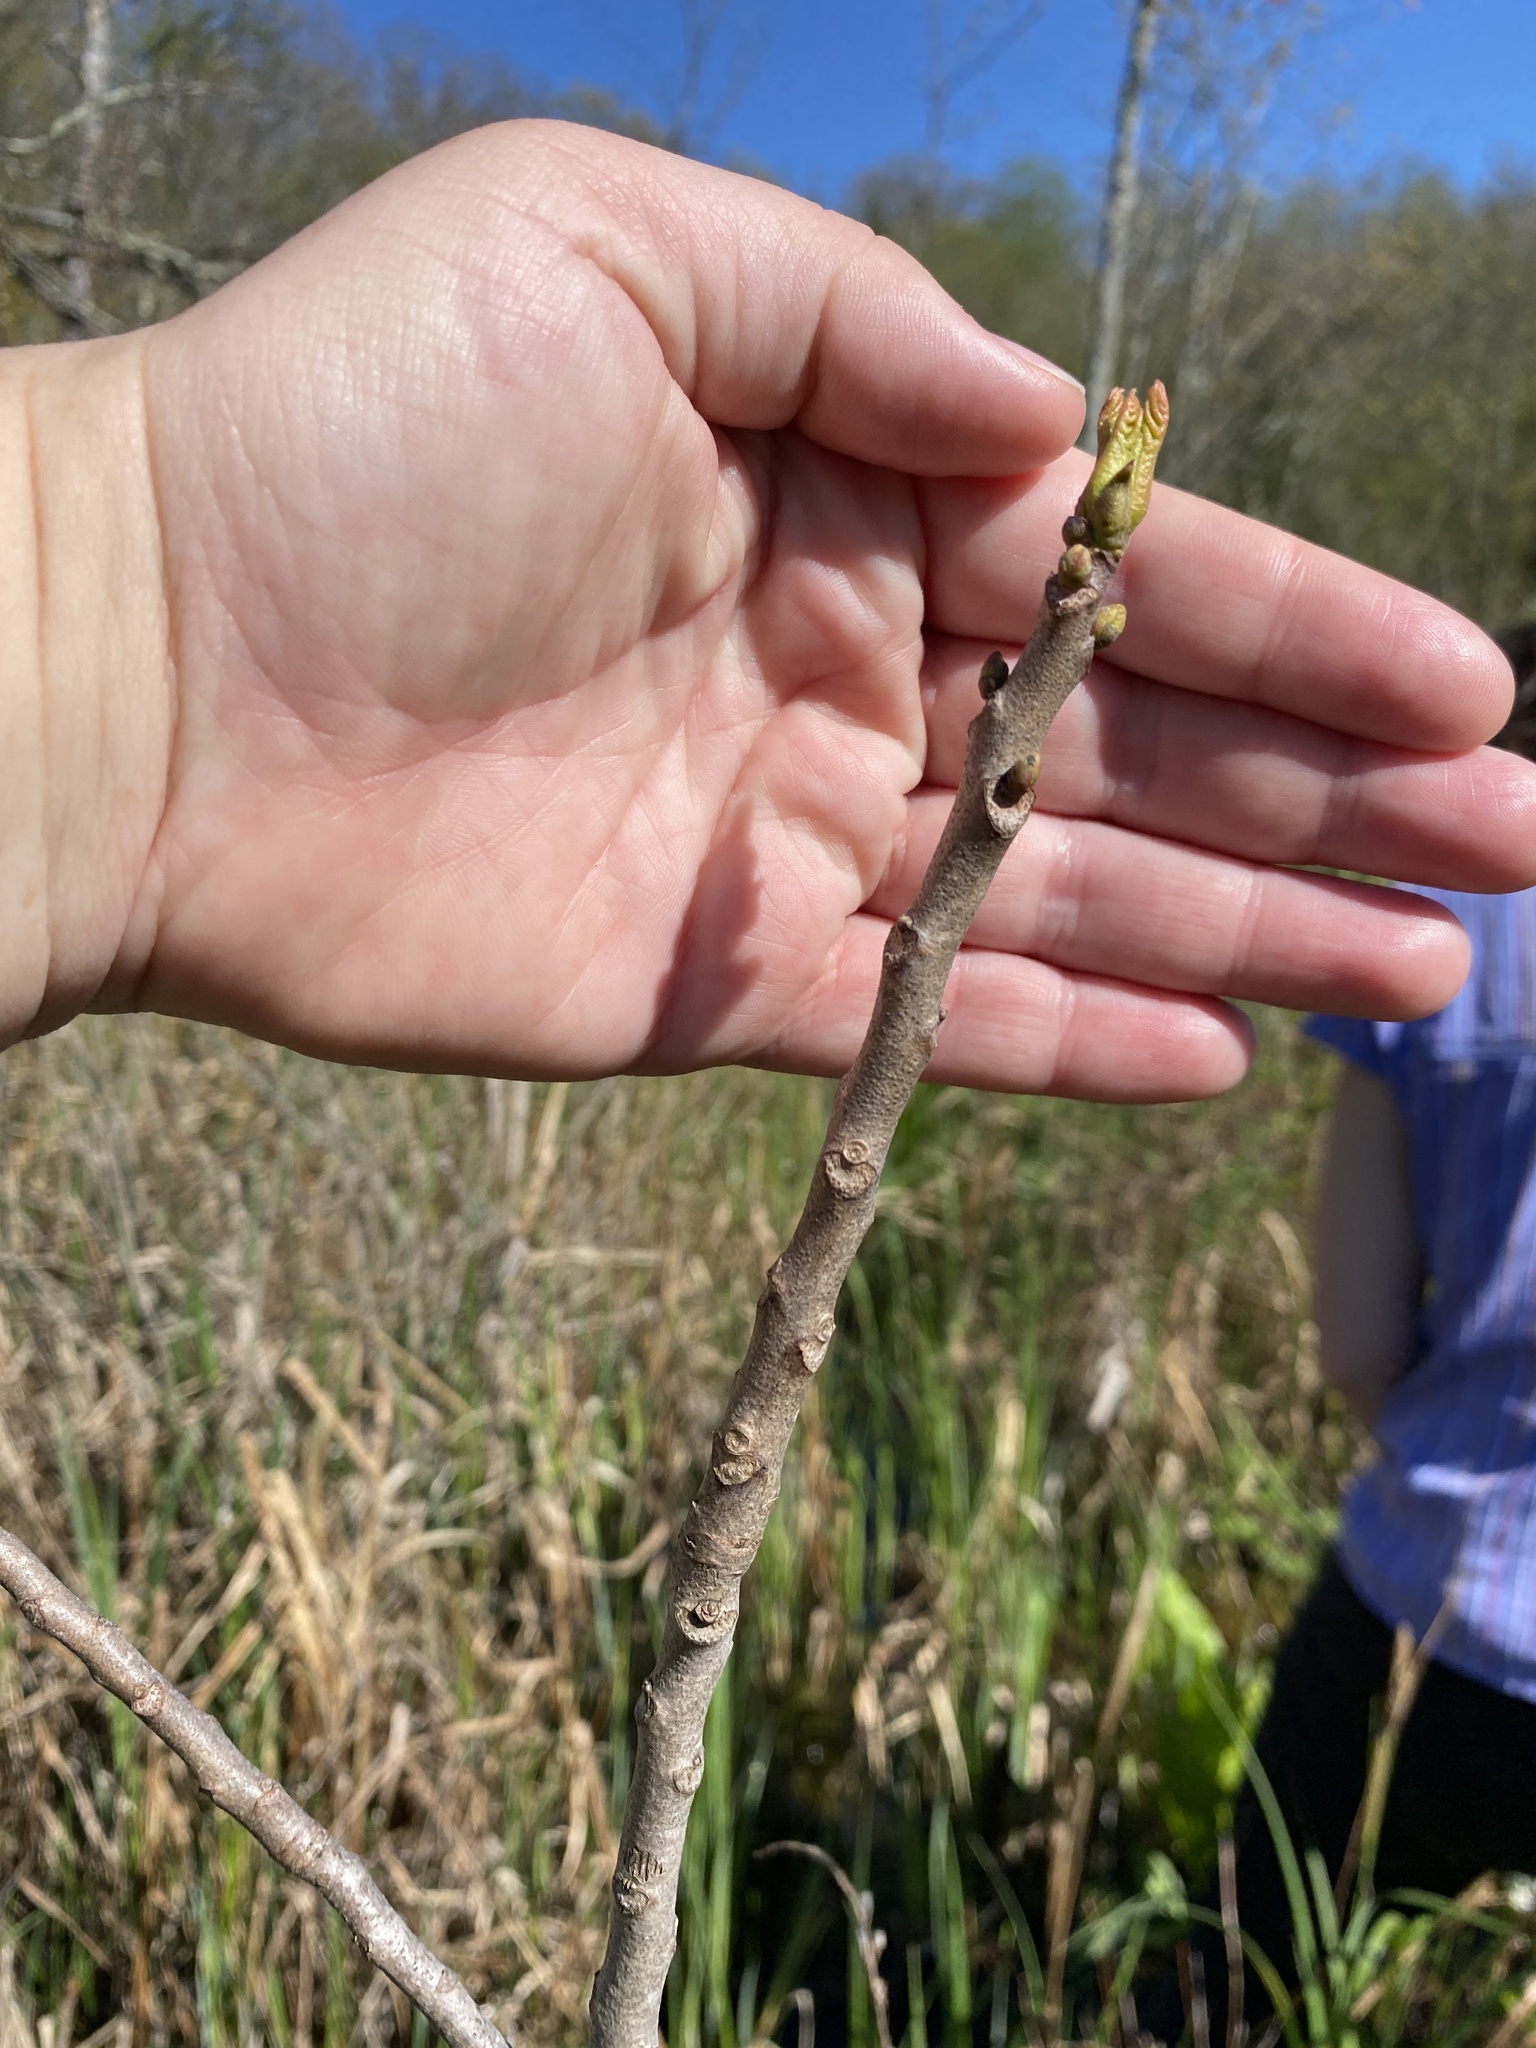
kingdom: Plantae
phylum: Tracheophyta
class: Magnoliopsida
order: Sapindales
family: Anacardiaceae
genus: Toxicodendron
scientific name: Toxicodendron vernix
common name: Poison sumac
